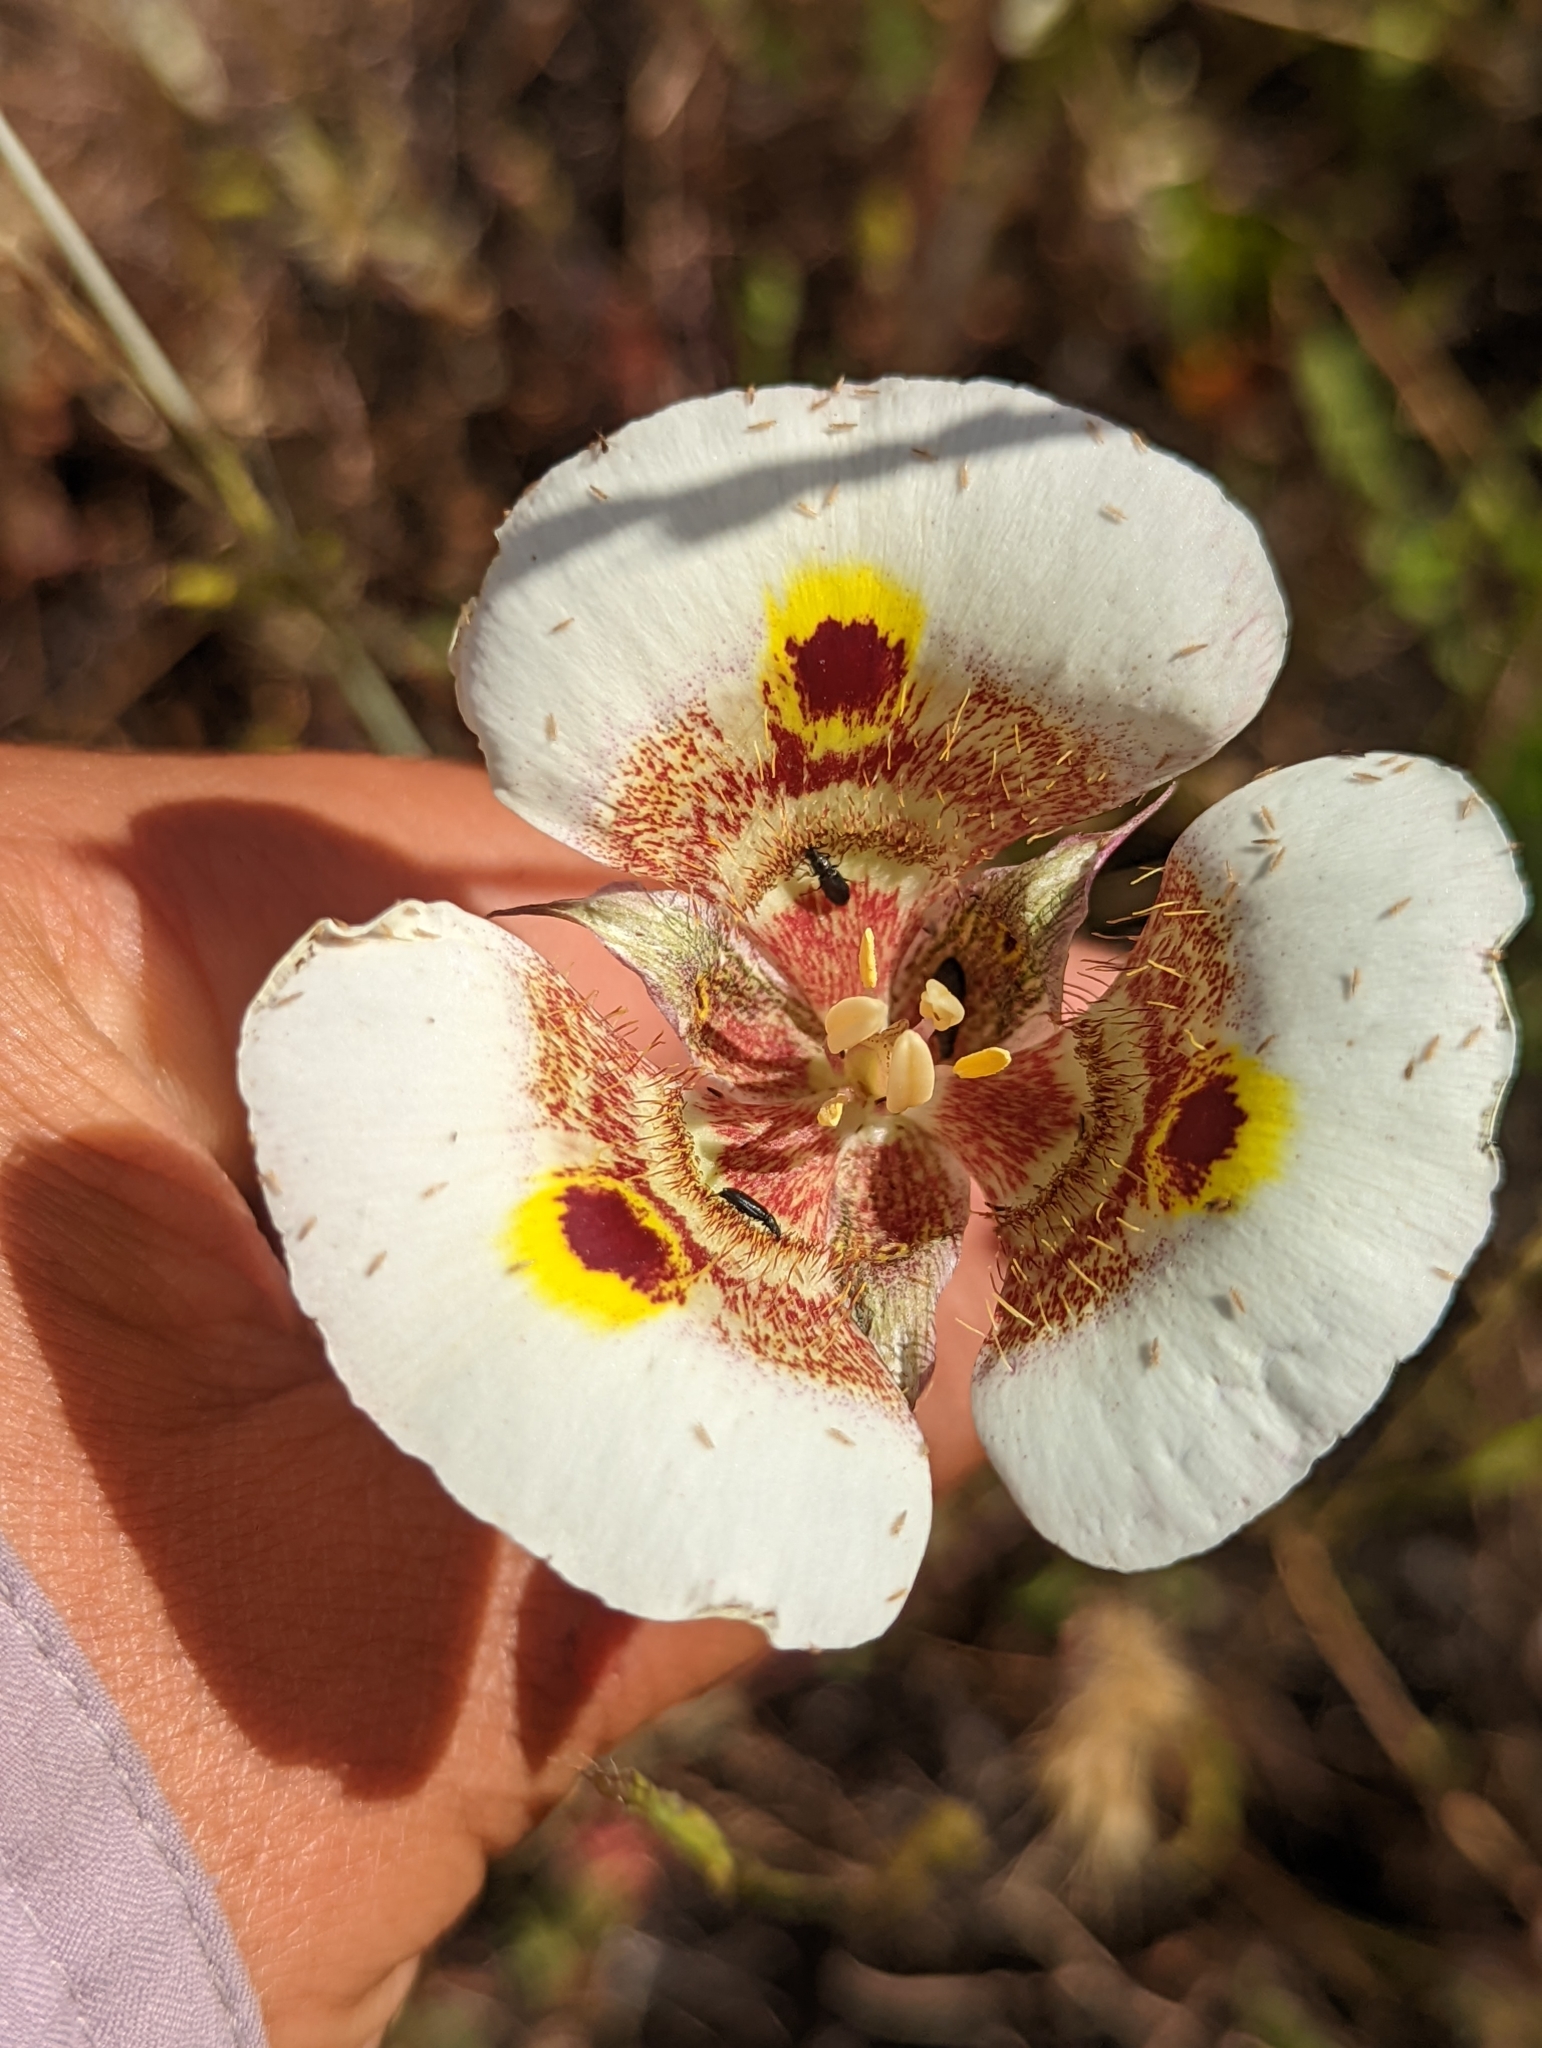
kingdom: Plantae
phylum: Tracheophyta
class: Liliopsida
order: Liliales
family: Liliaceae
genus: Calochortus
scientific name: Calochortus superbus
